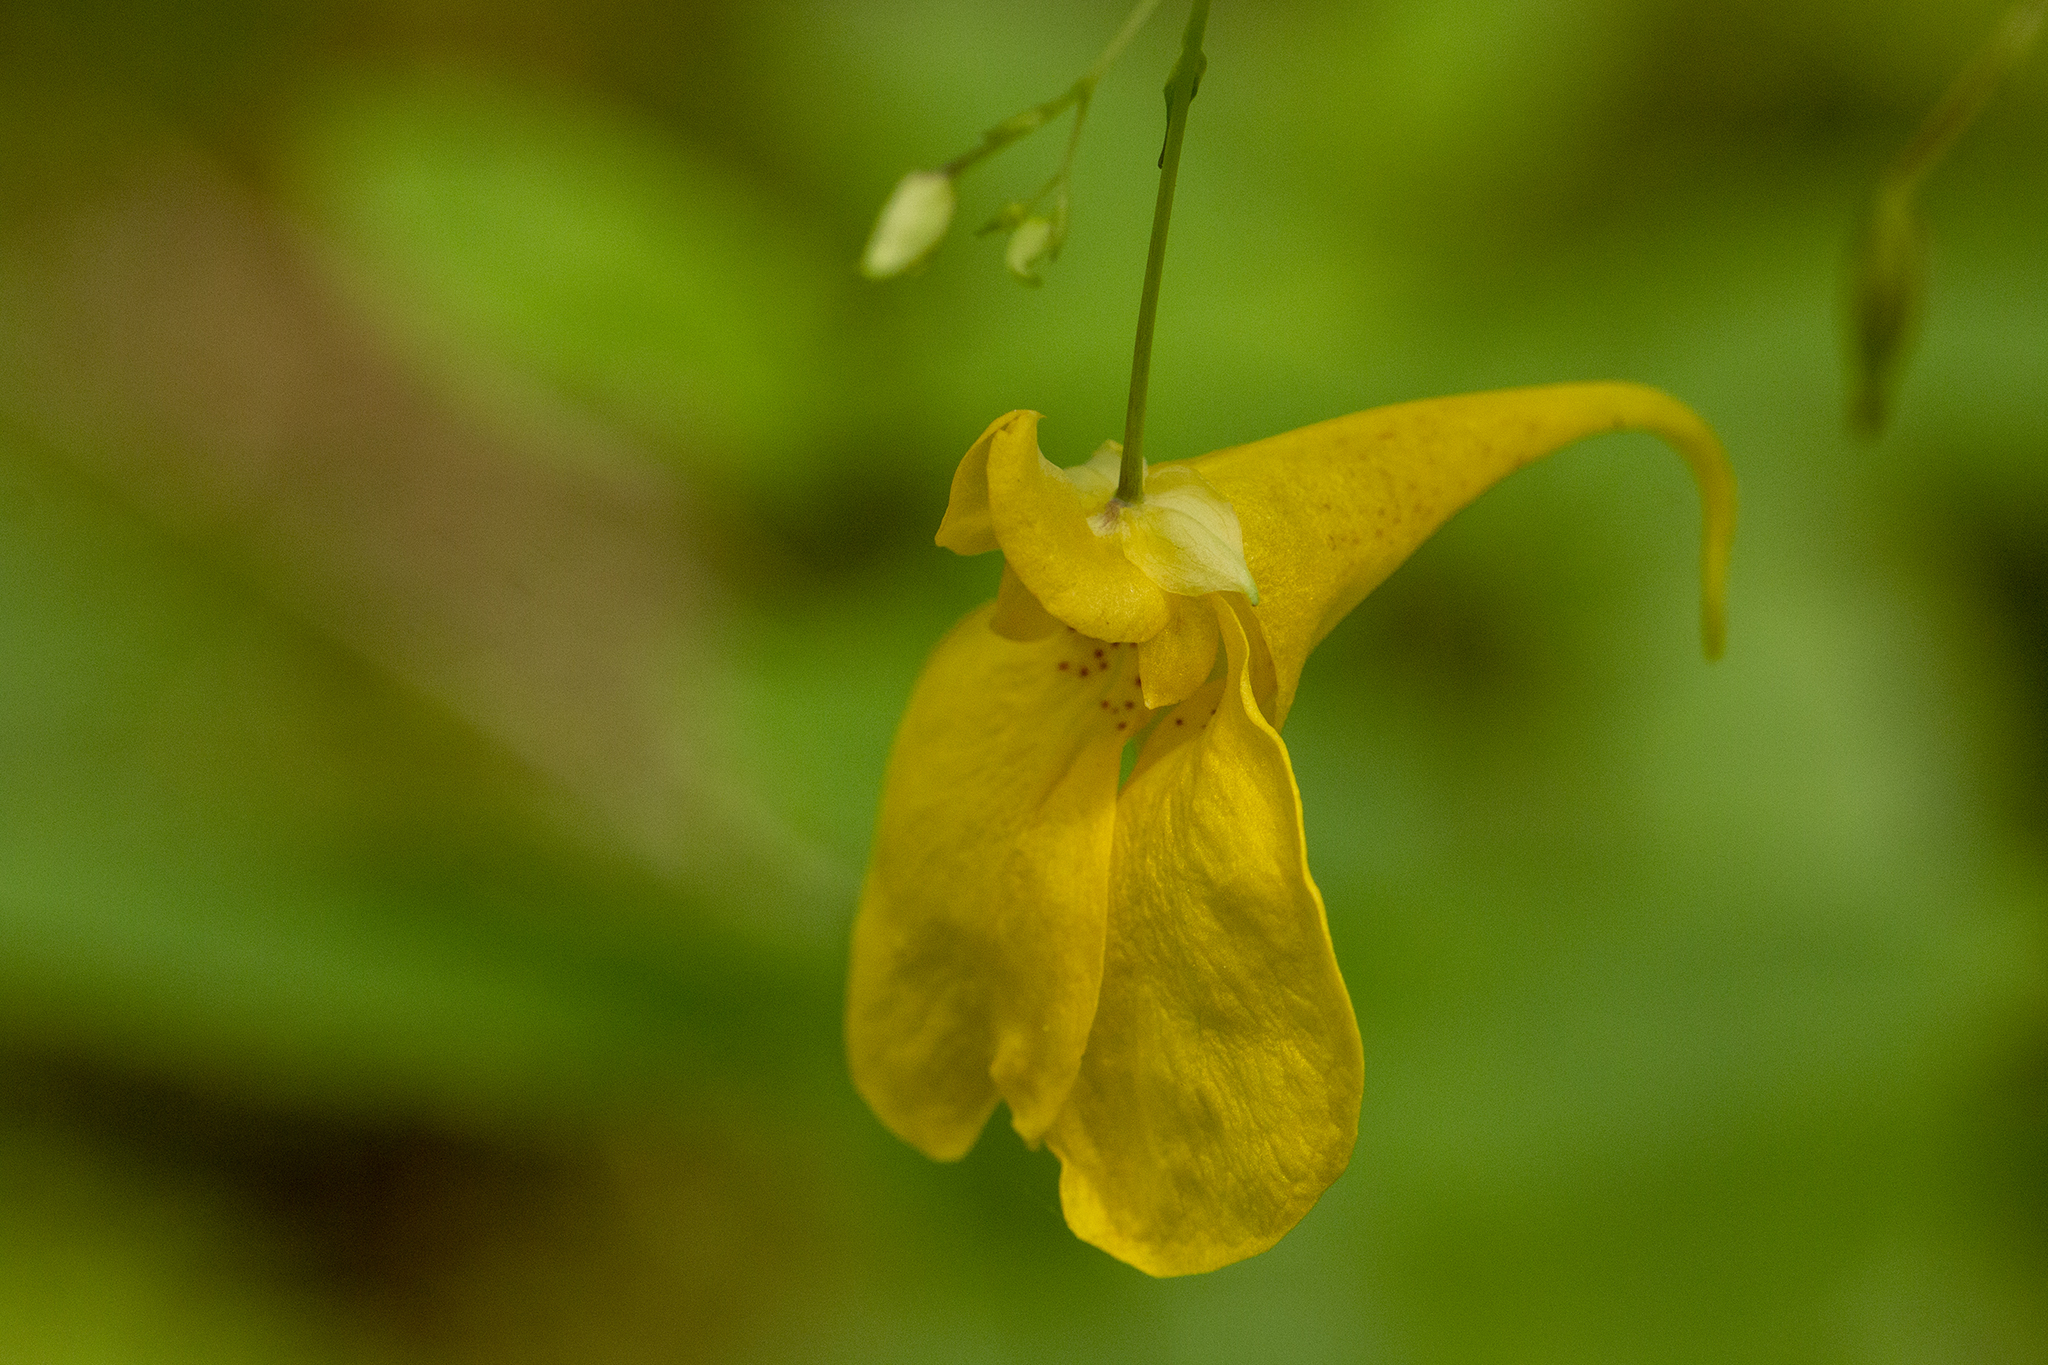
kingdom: Plantae
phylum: Tracheophyta
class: Magnoliopsida
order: Ericales
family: Balsaminaceae
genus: Impatiens
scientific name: Impatiens noli-tangere
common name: Touch-me-not balsam
